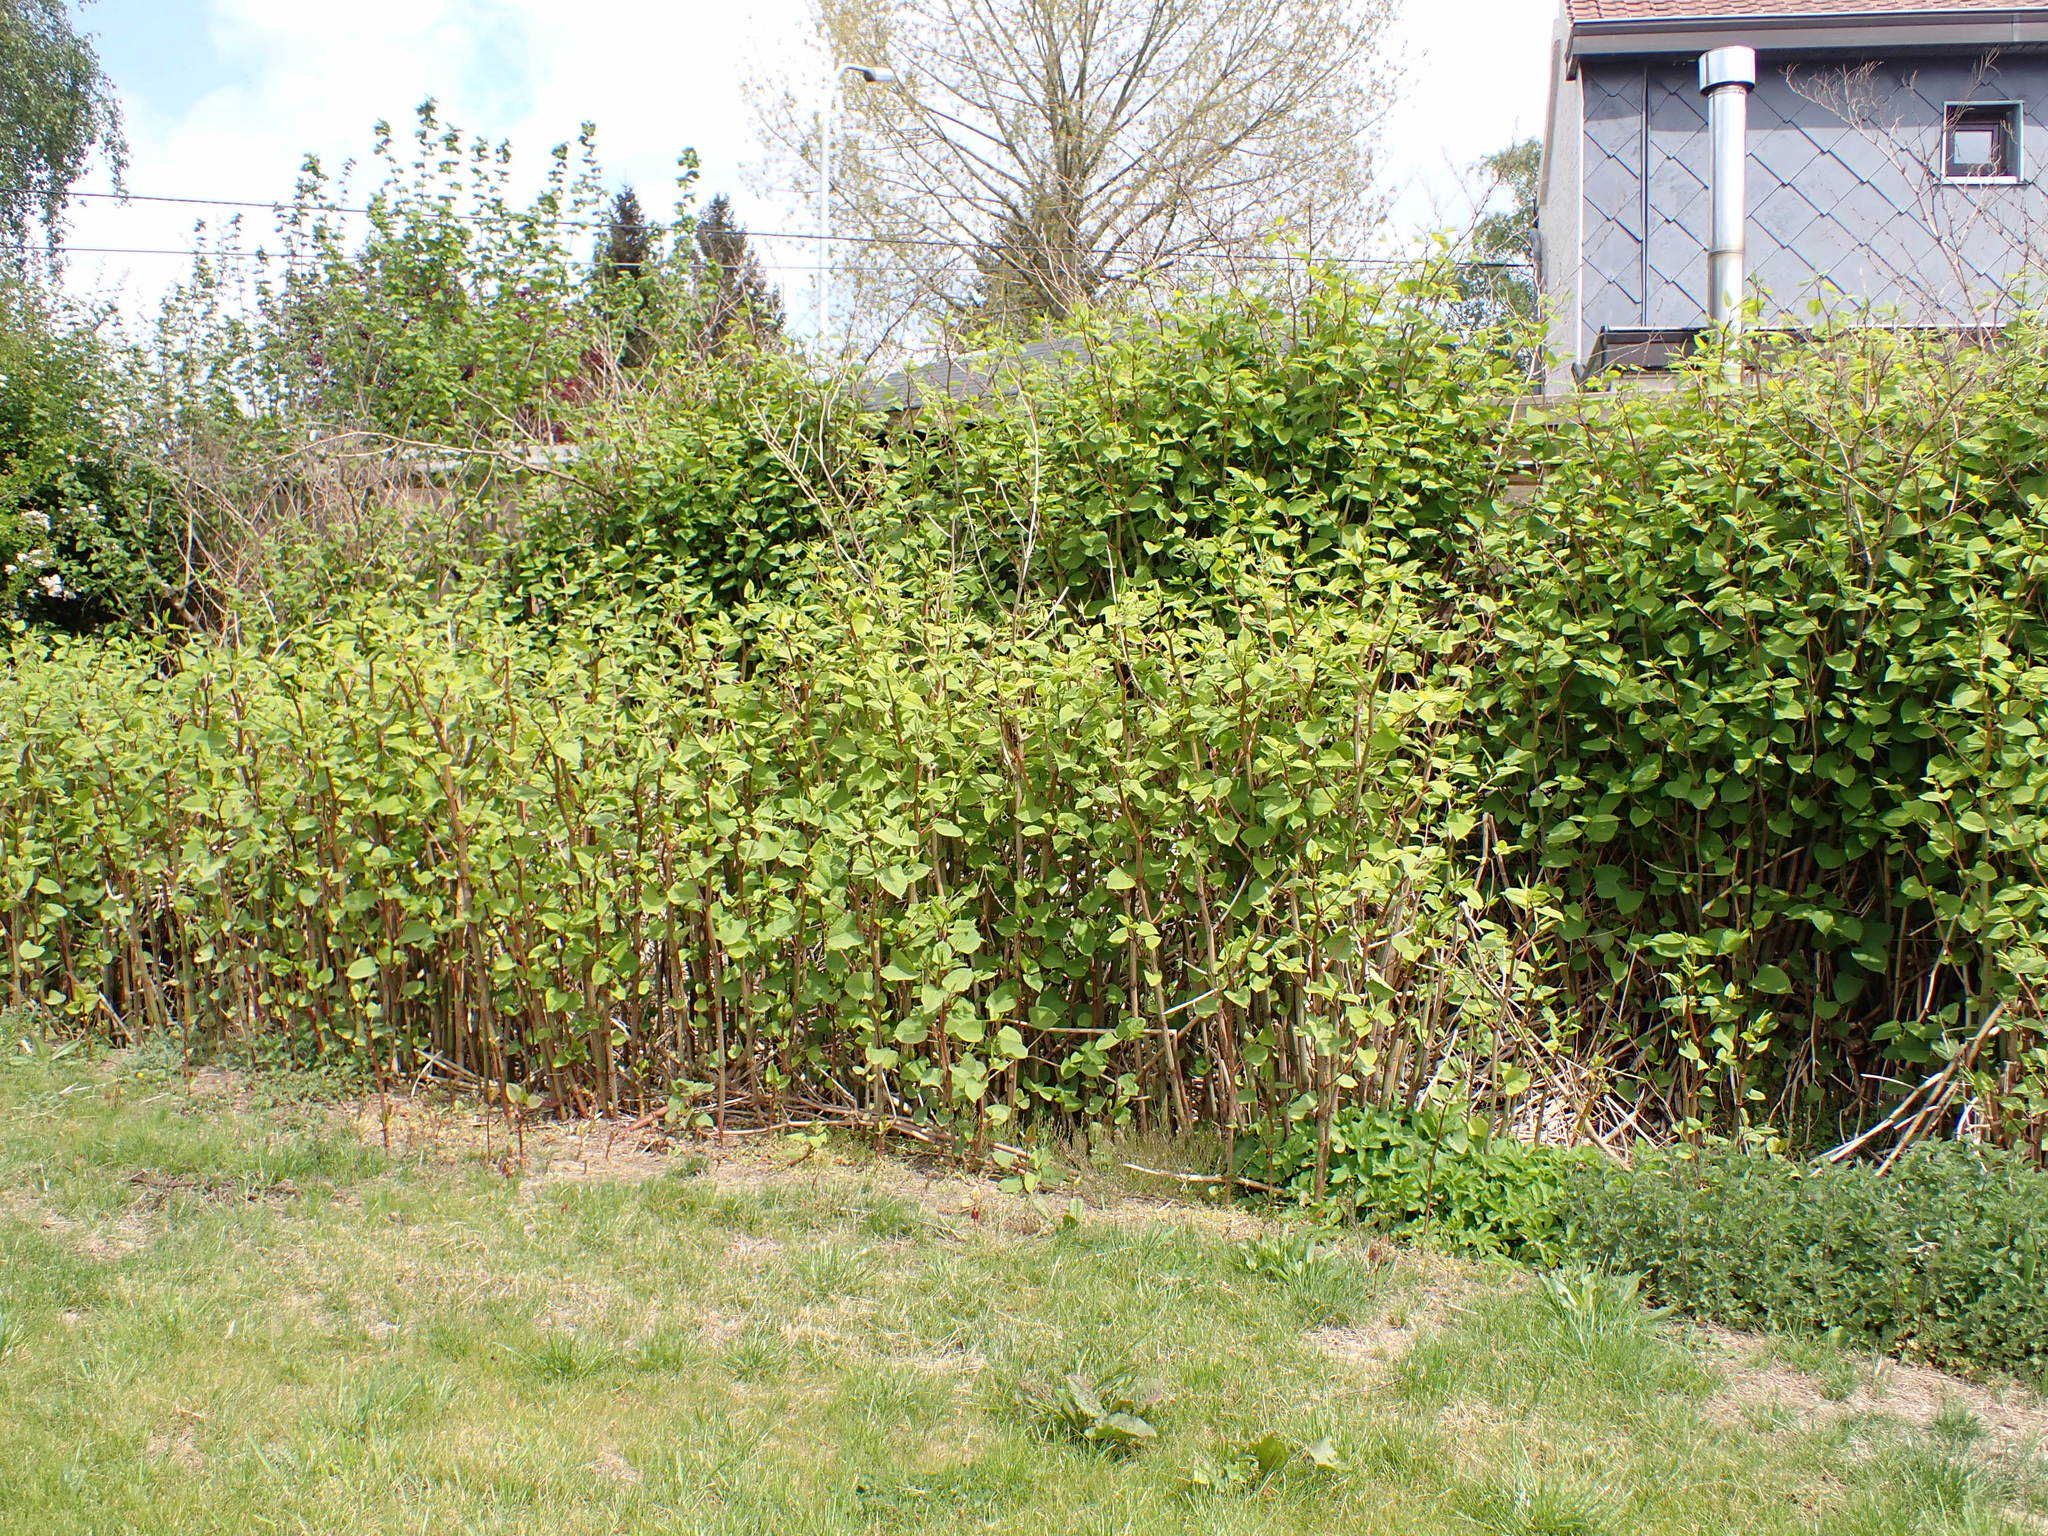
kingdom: Plantae
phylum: Tracheophyta
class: Magnoliopsida
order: Caryophyllales
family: Polygonaceae
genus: Reynoutria
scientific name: Reynoutria japonica
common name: Japanese knotweed
